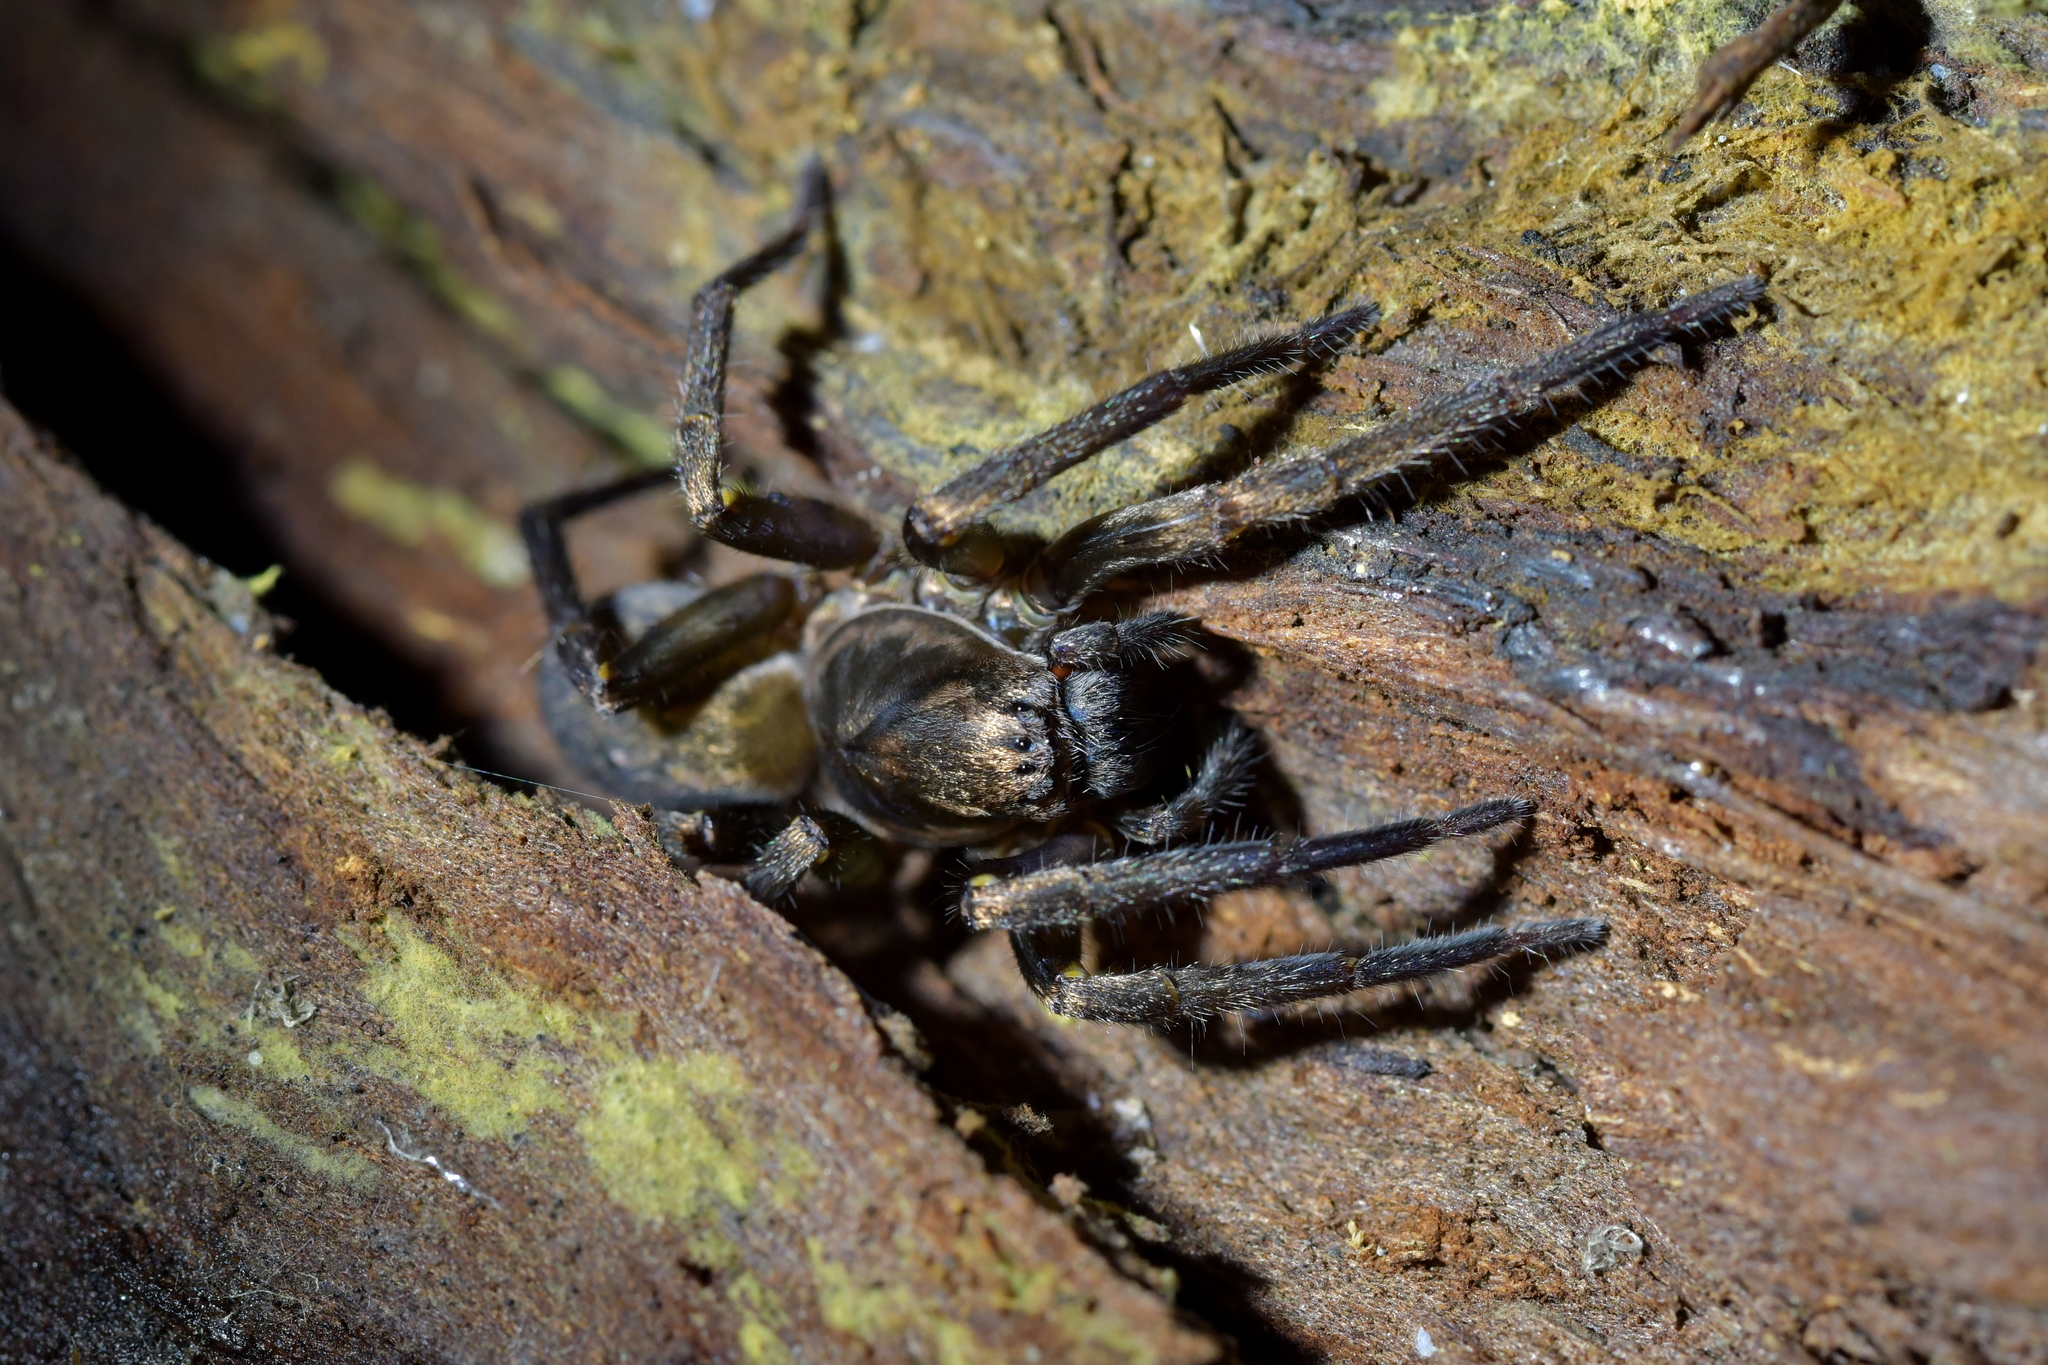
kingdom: Animalia
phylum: Arthropoda
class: Arachnida
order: Araneae
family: Zoropsidae
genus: Uliodon
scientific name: Uliodon albopunctatus
